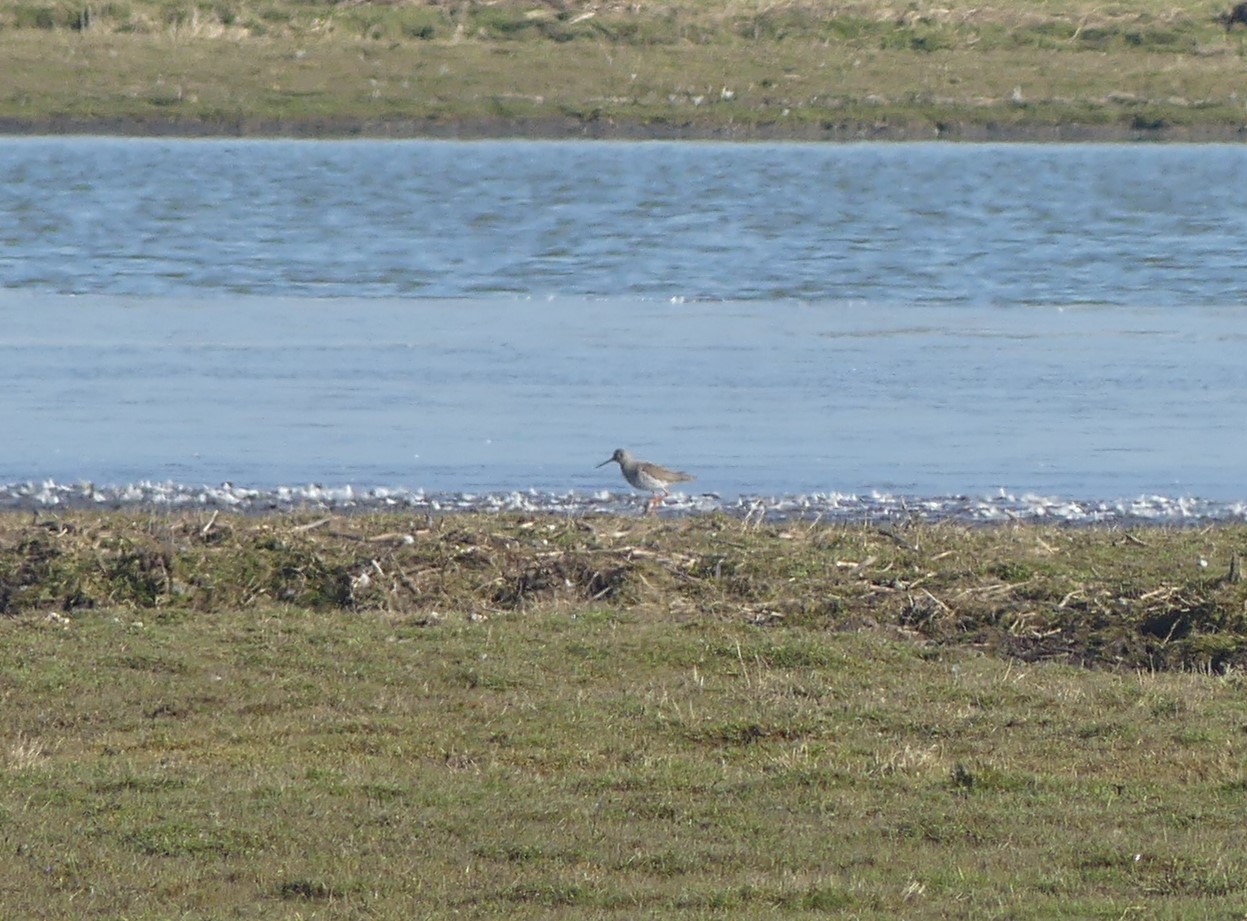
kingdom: Animalia
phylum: Chordata
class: Aves
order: Charadriiformes
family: Scolopacidae
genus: Tringa
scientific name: Tringa totanus
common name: Common redshank
